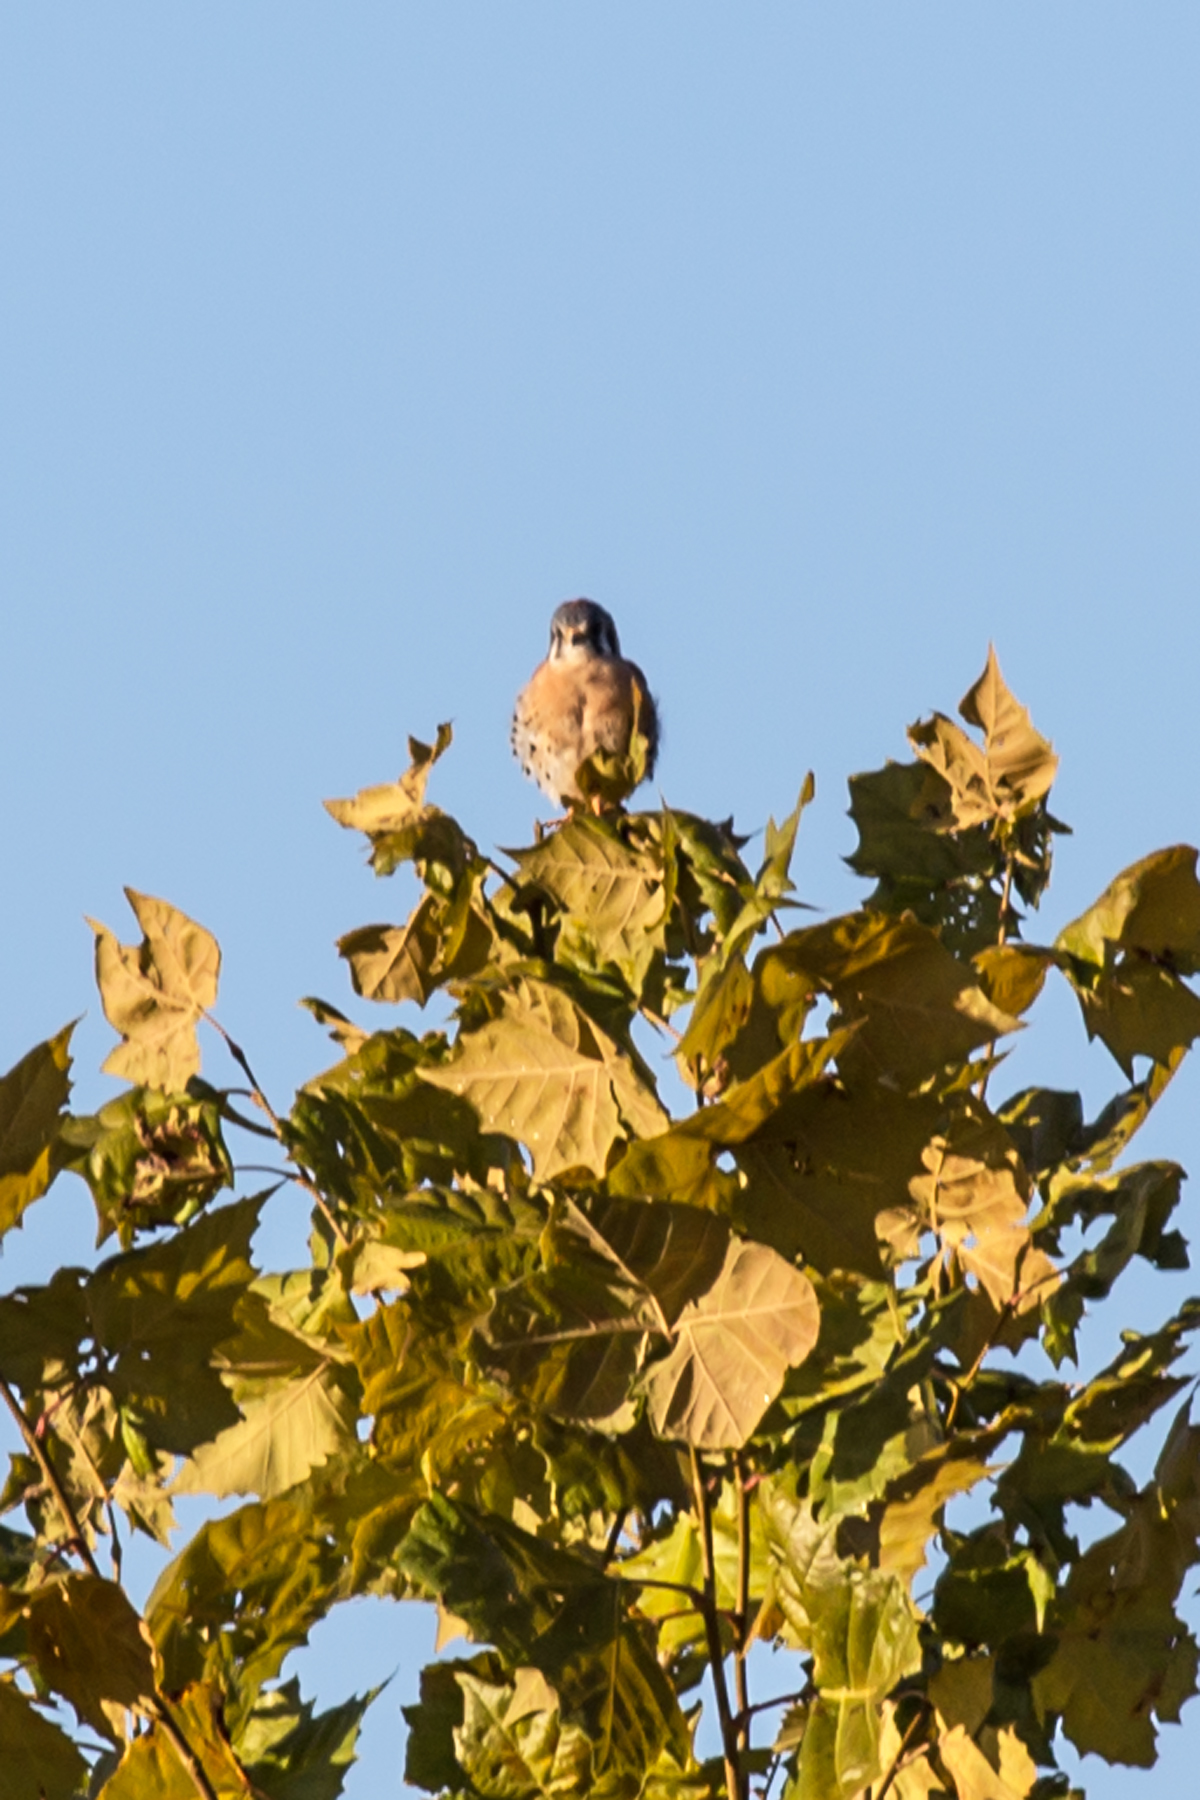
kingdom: Animalia
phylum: Chordata
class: Aves
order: Falconiformes
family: Falconidae
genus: Falco
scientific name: Falco sparverius
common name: American kestrel
